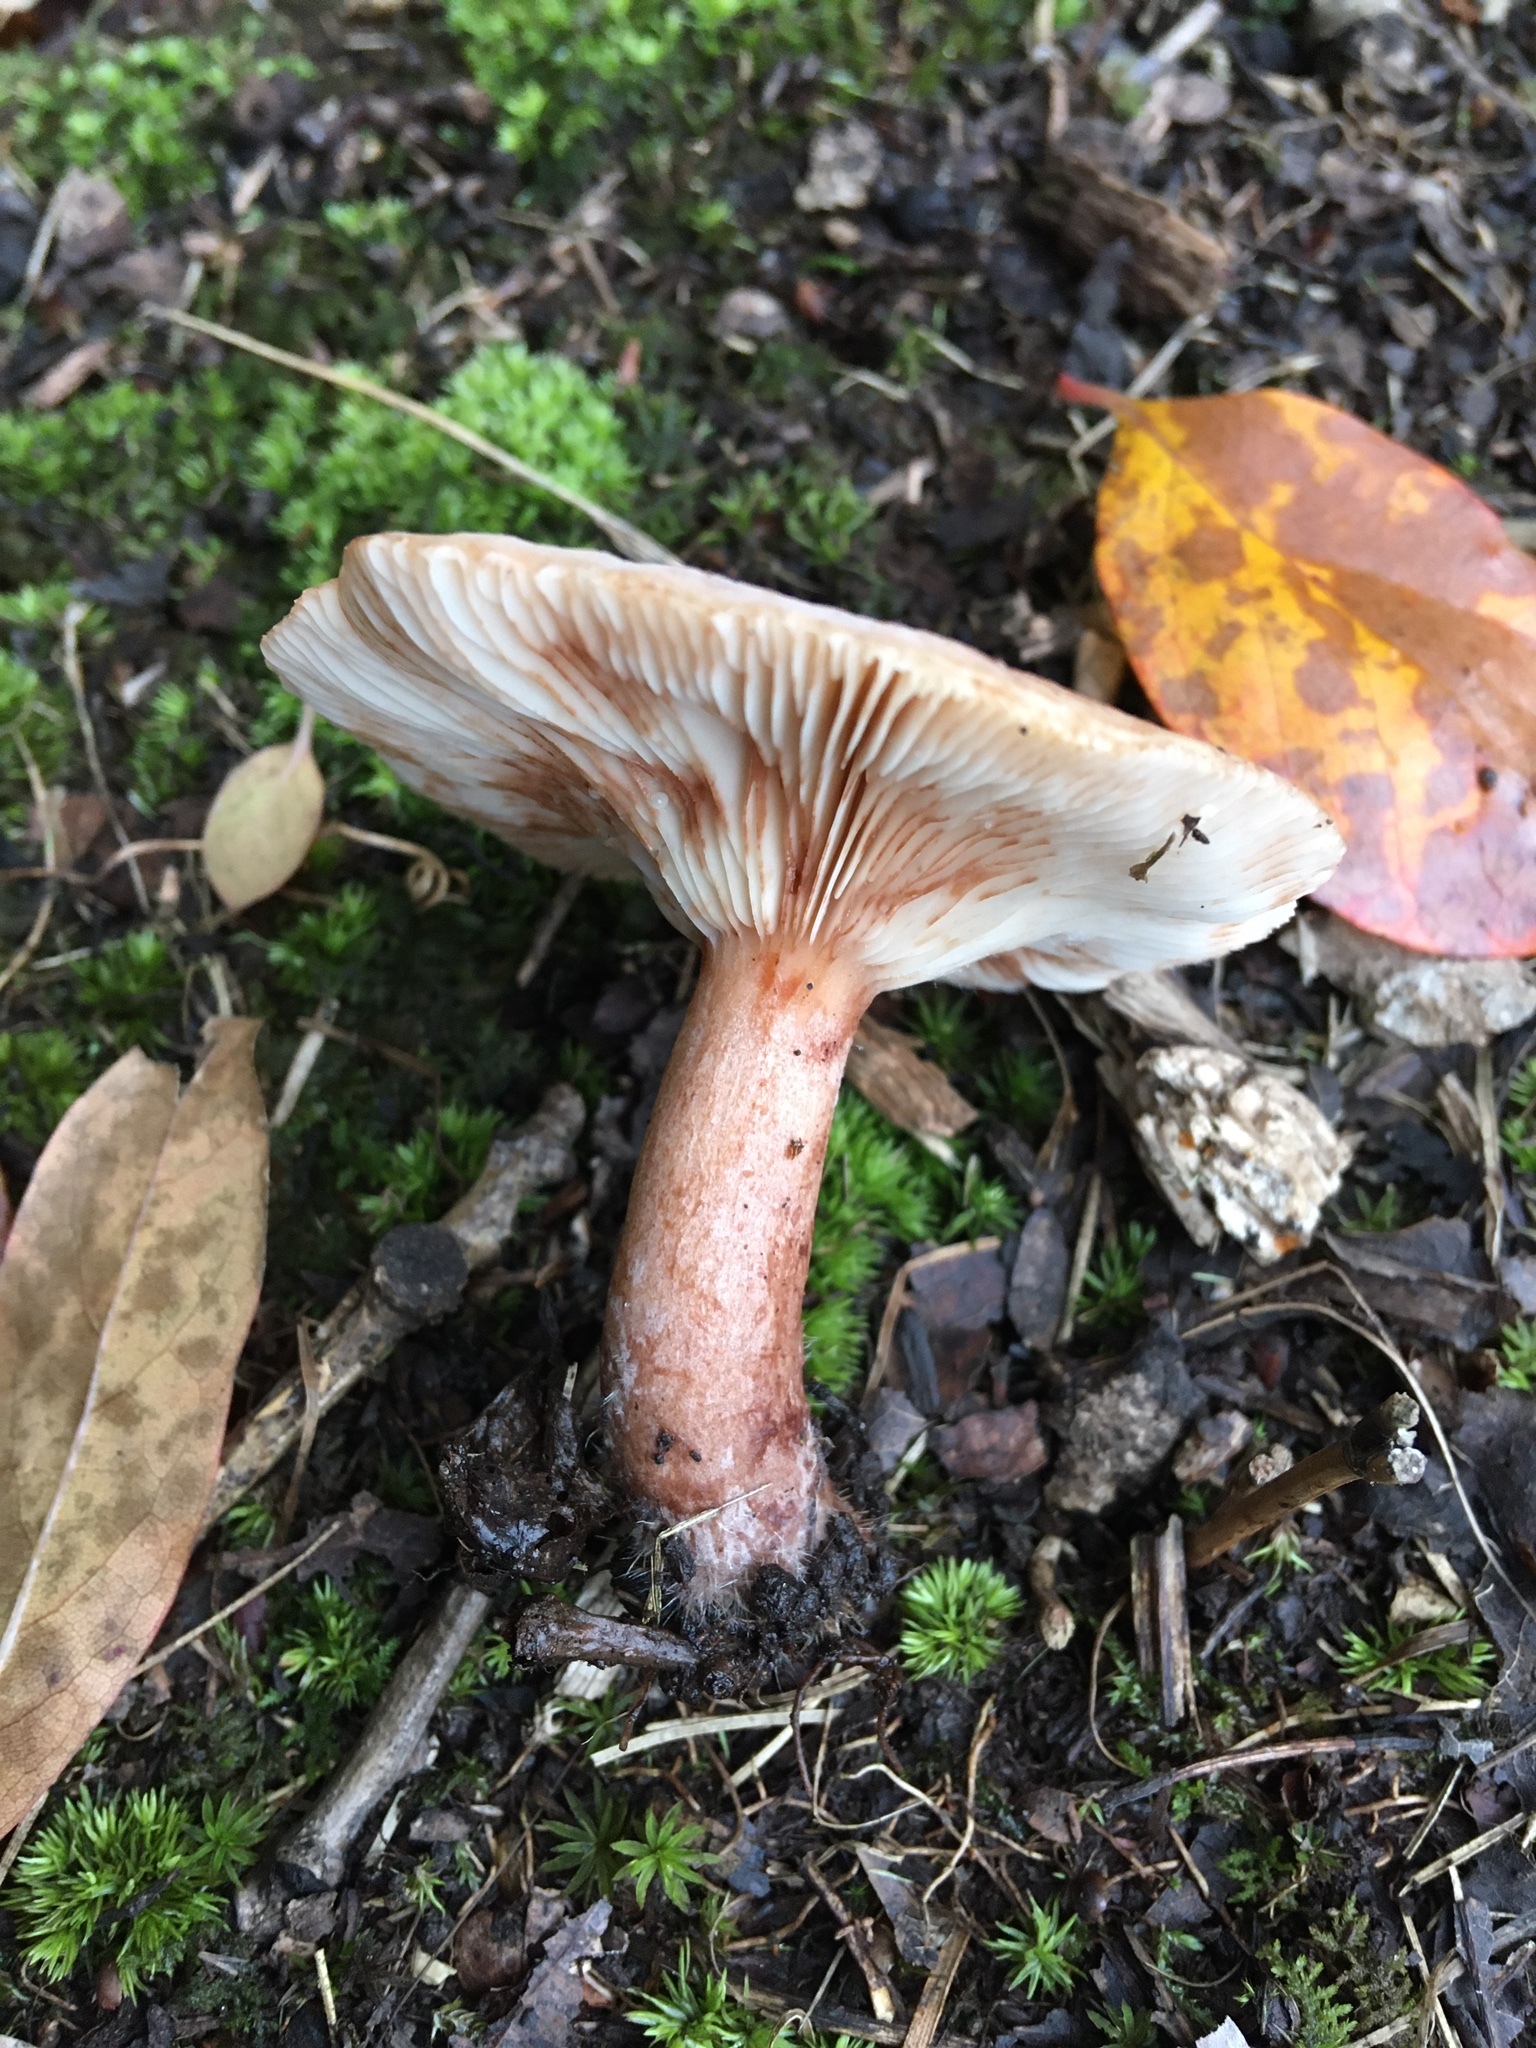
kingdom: Fungi
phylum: Basidiomycota
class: Agaricomycetes
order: Russulales
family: Russulaceae
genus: Lactarius
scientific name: Lactarius mutabilis
